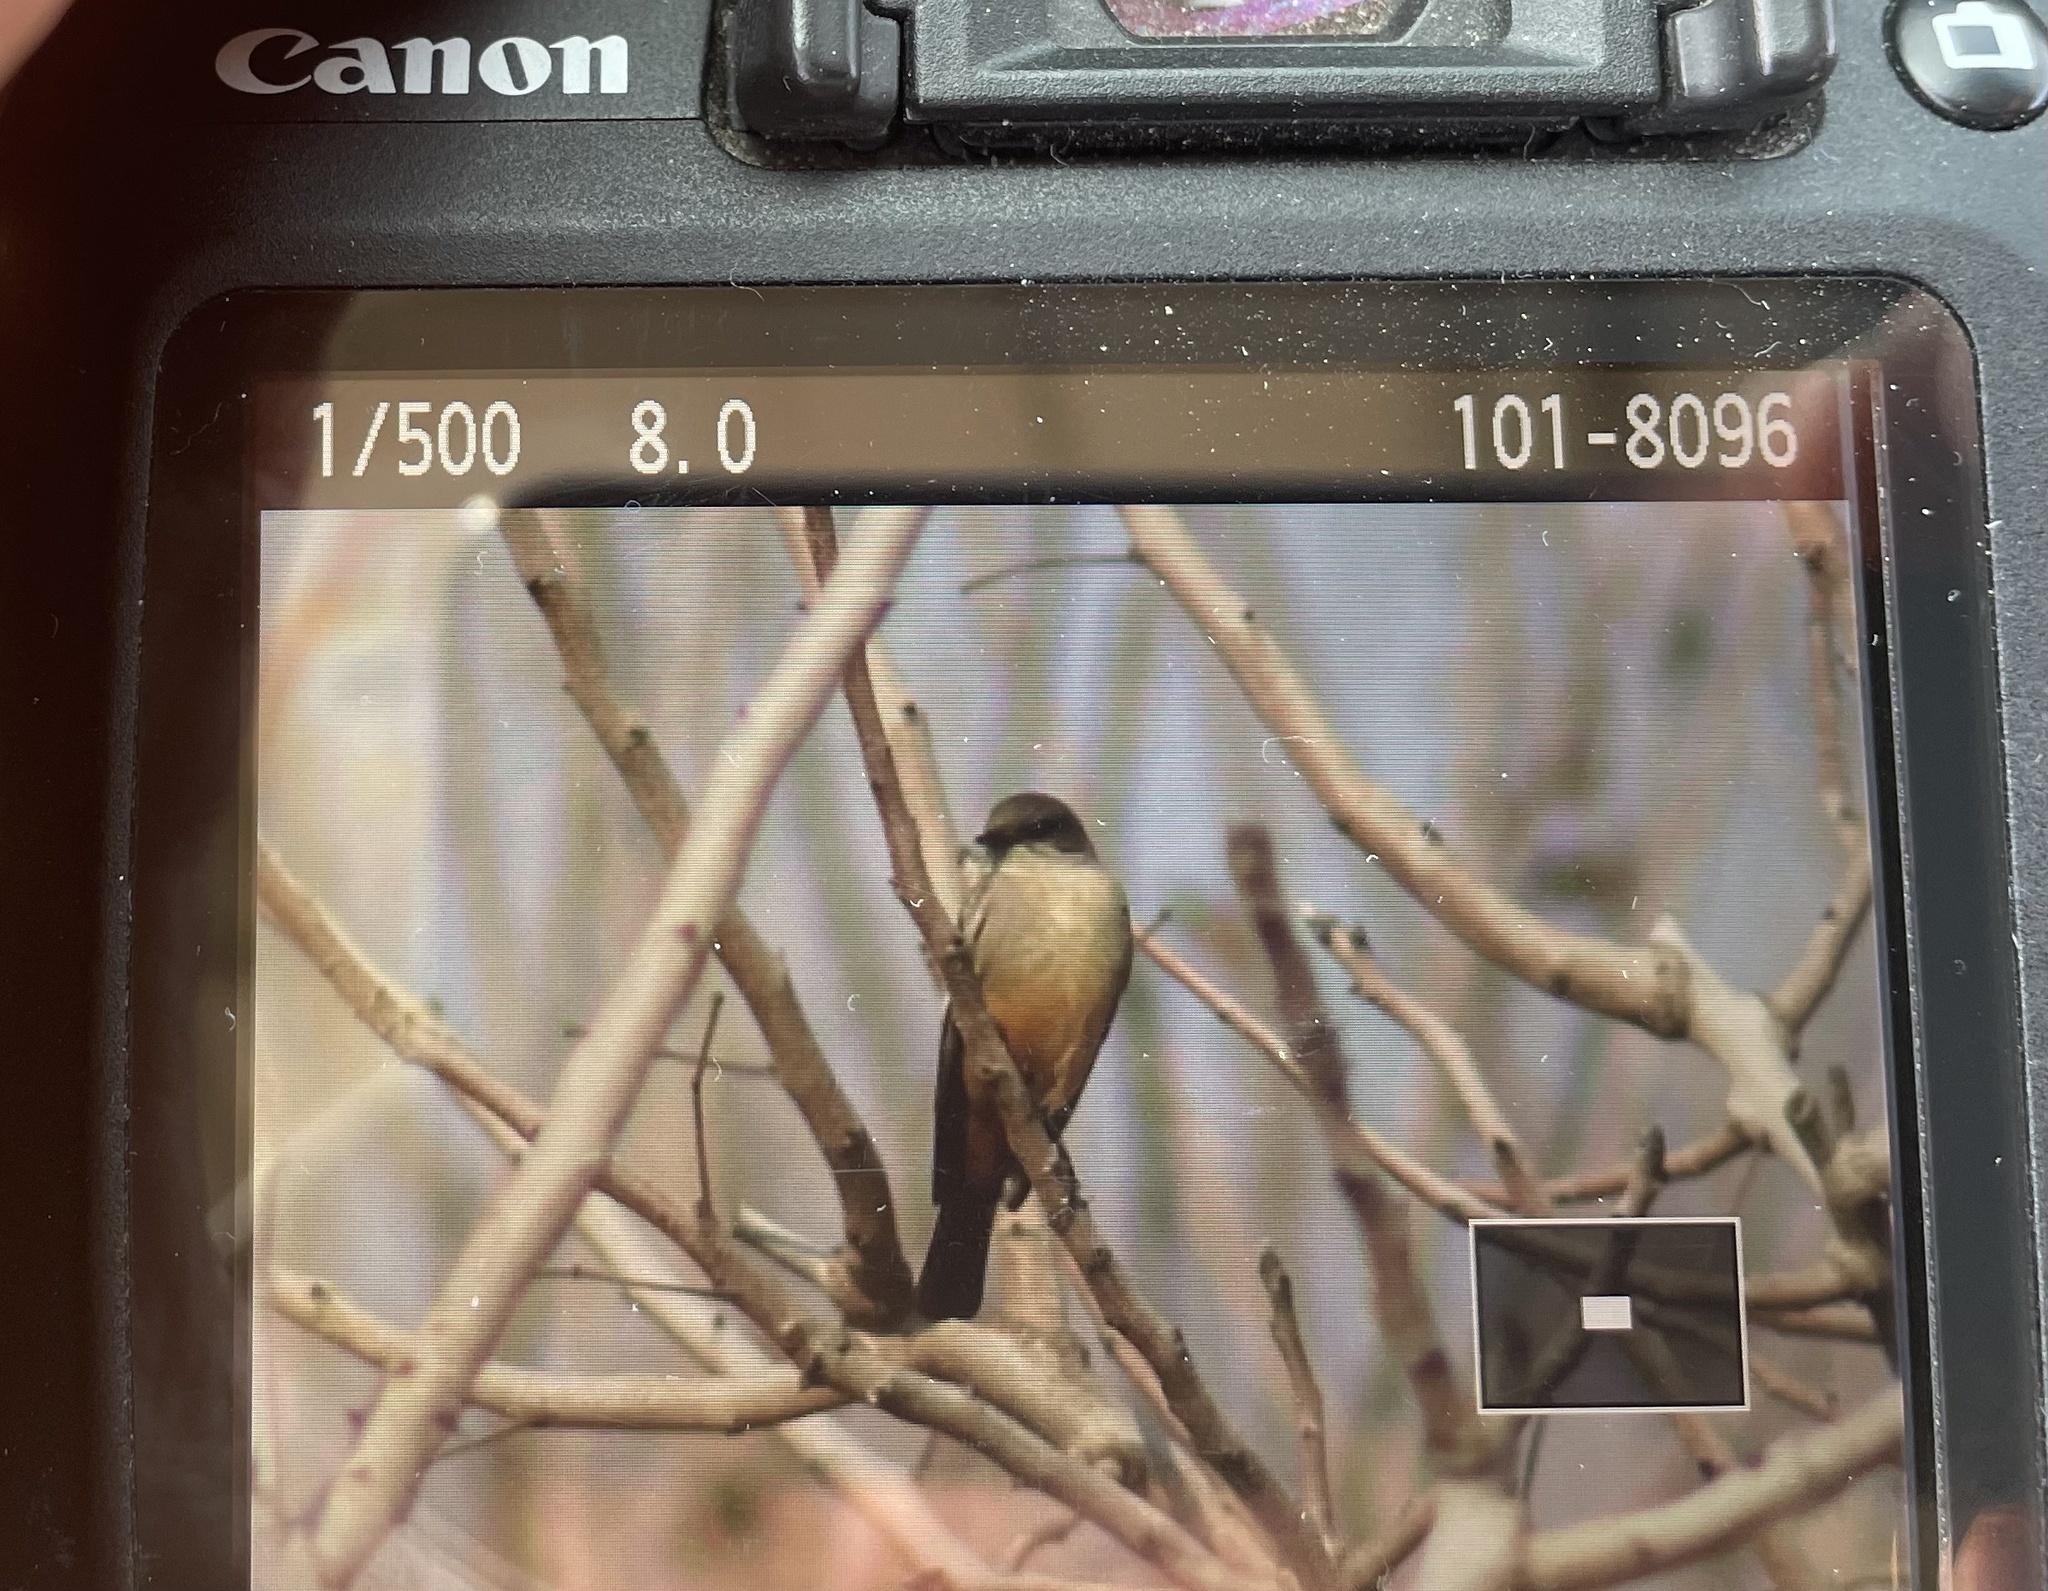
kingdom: Animalia
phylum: Chordata
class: Aves
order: Passeriformes
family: Tyrannidae
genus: Sayornis
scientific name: Sayornis saya
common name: Say's phoebe
